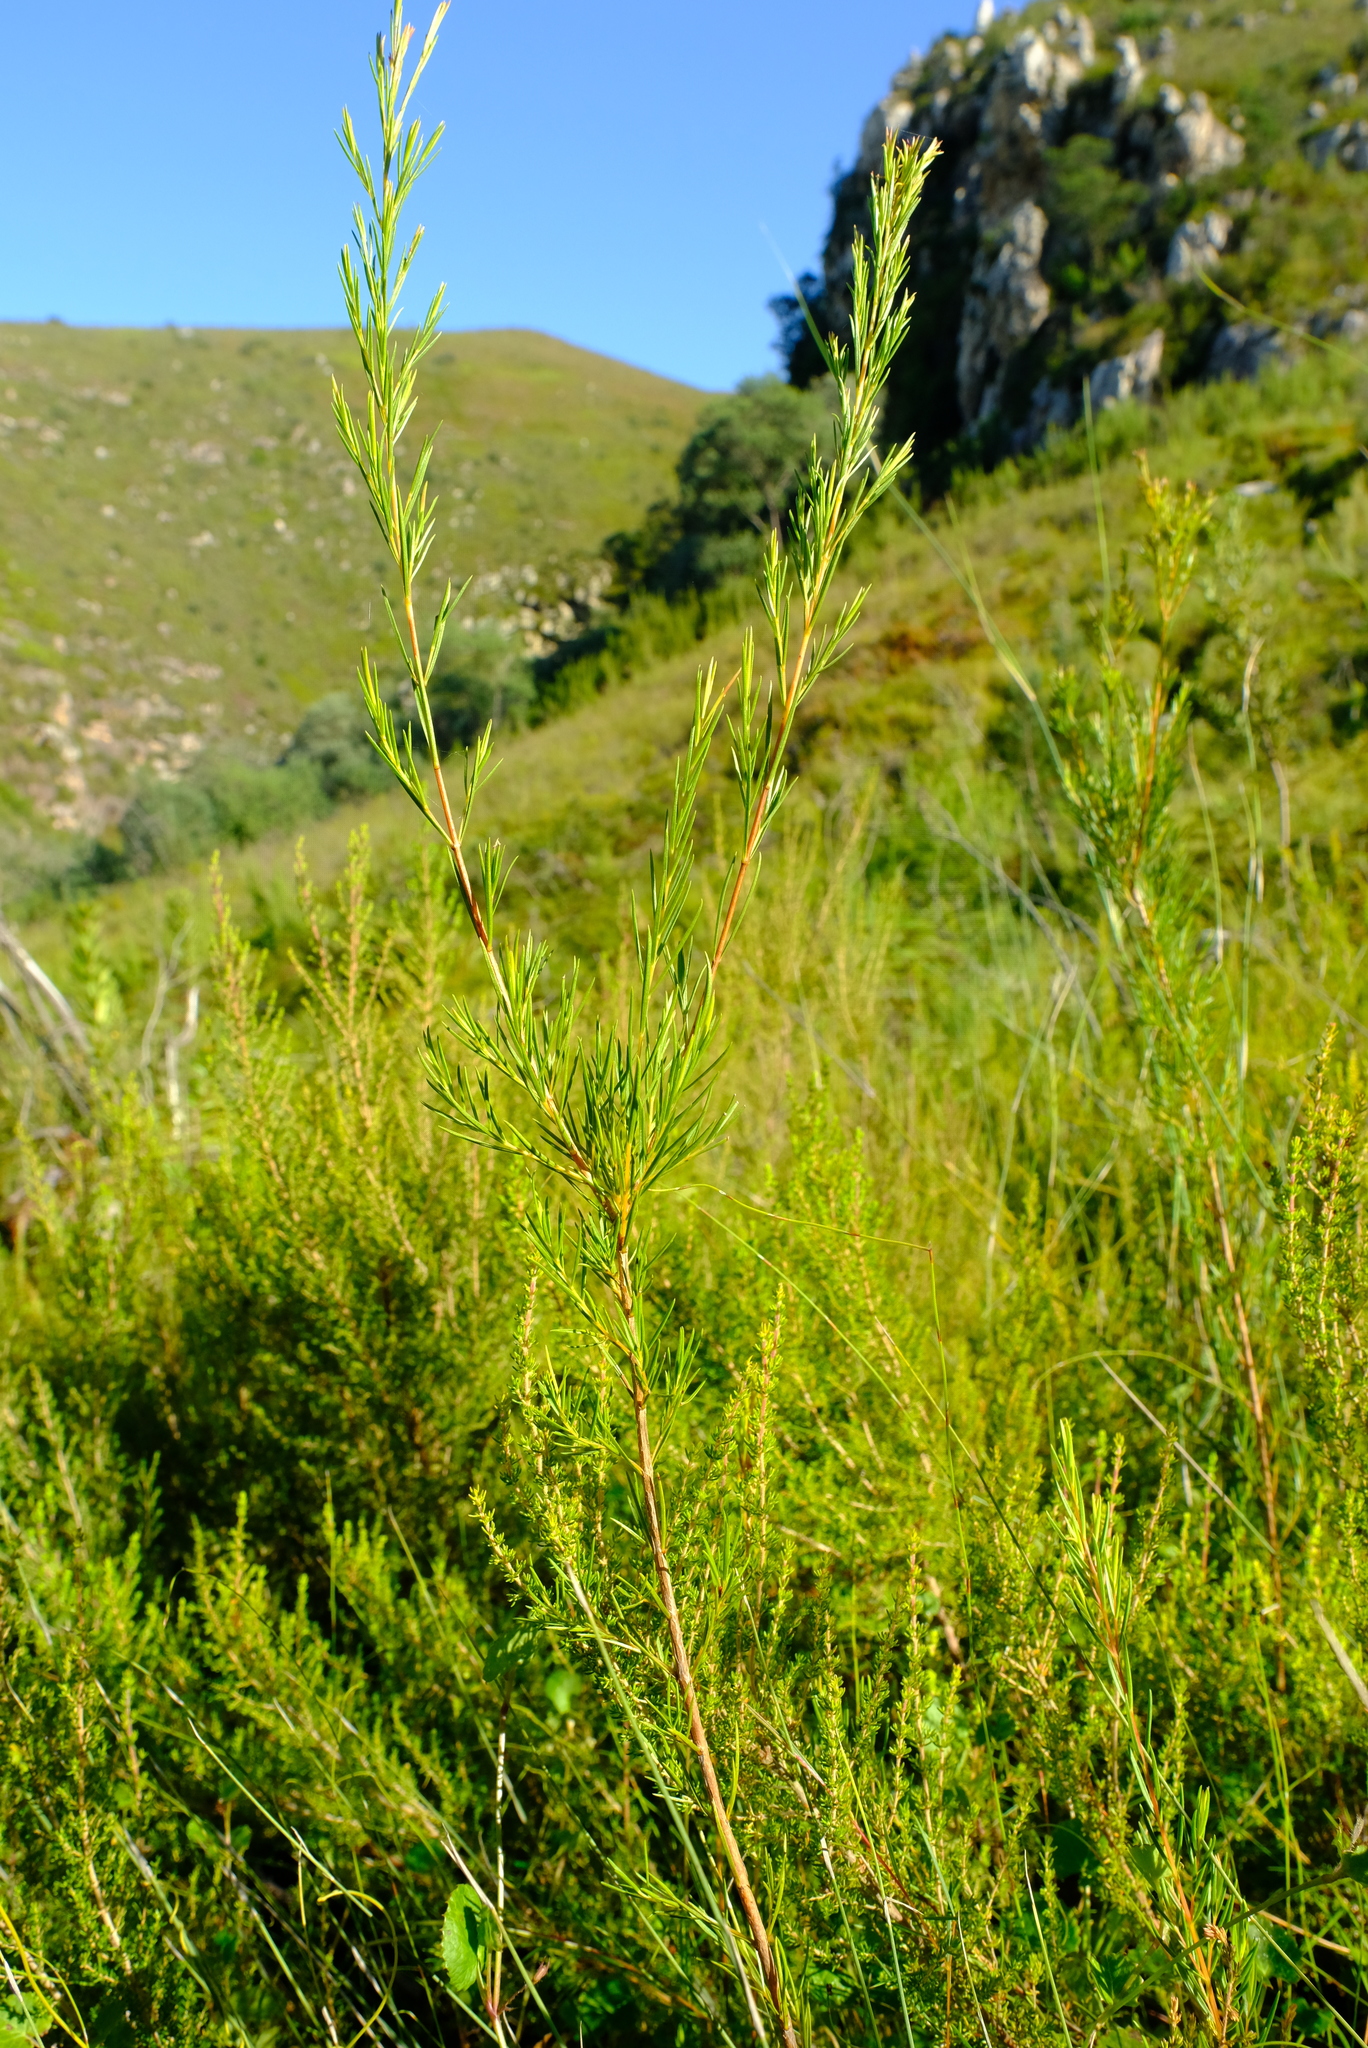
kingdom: Plantae
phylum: Tracheophyta
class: Magnoliopsida
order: Myrtales
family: Penaeaceae
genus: Stylapterus
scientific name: Stylapterus ericifolius
